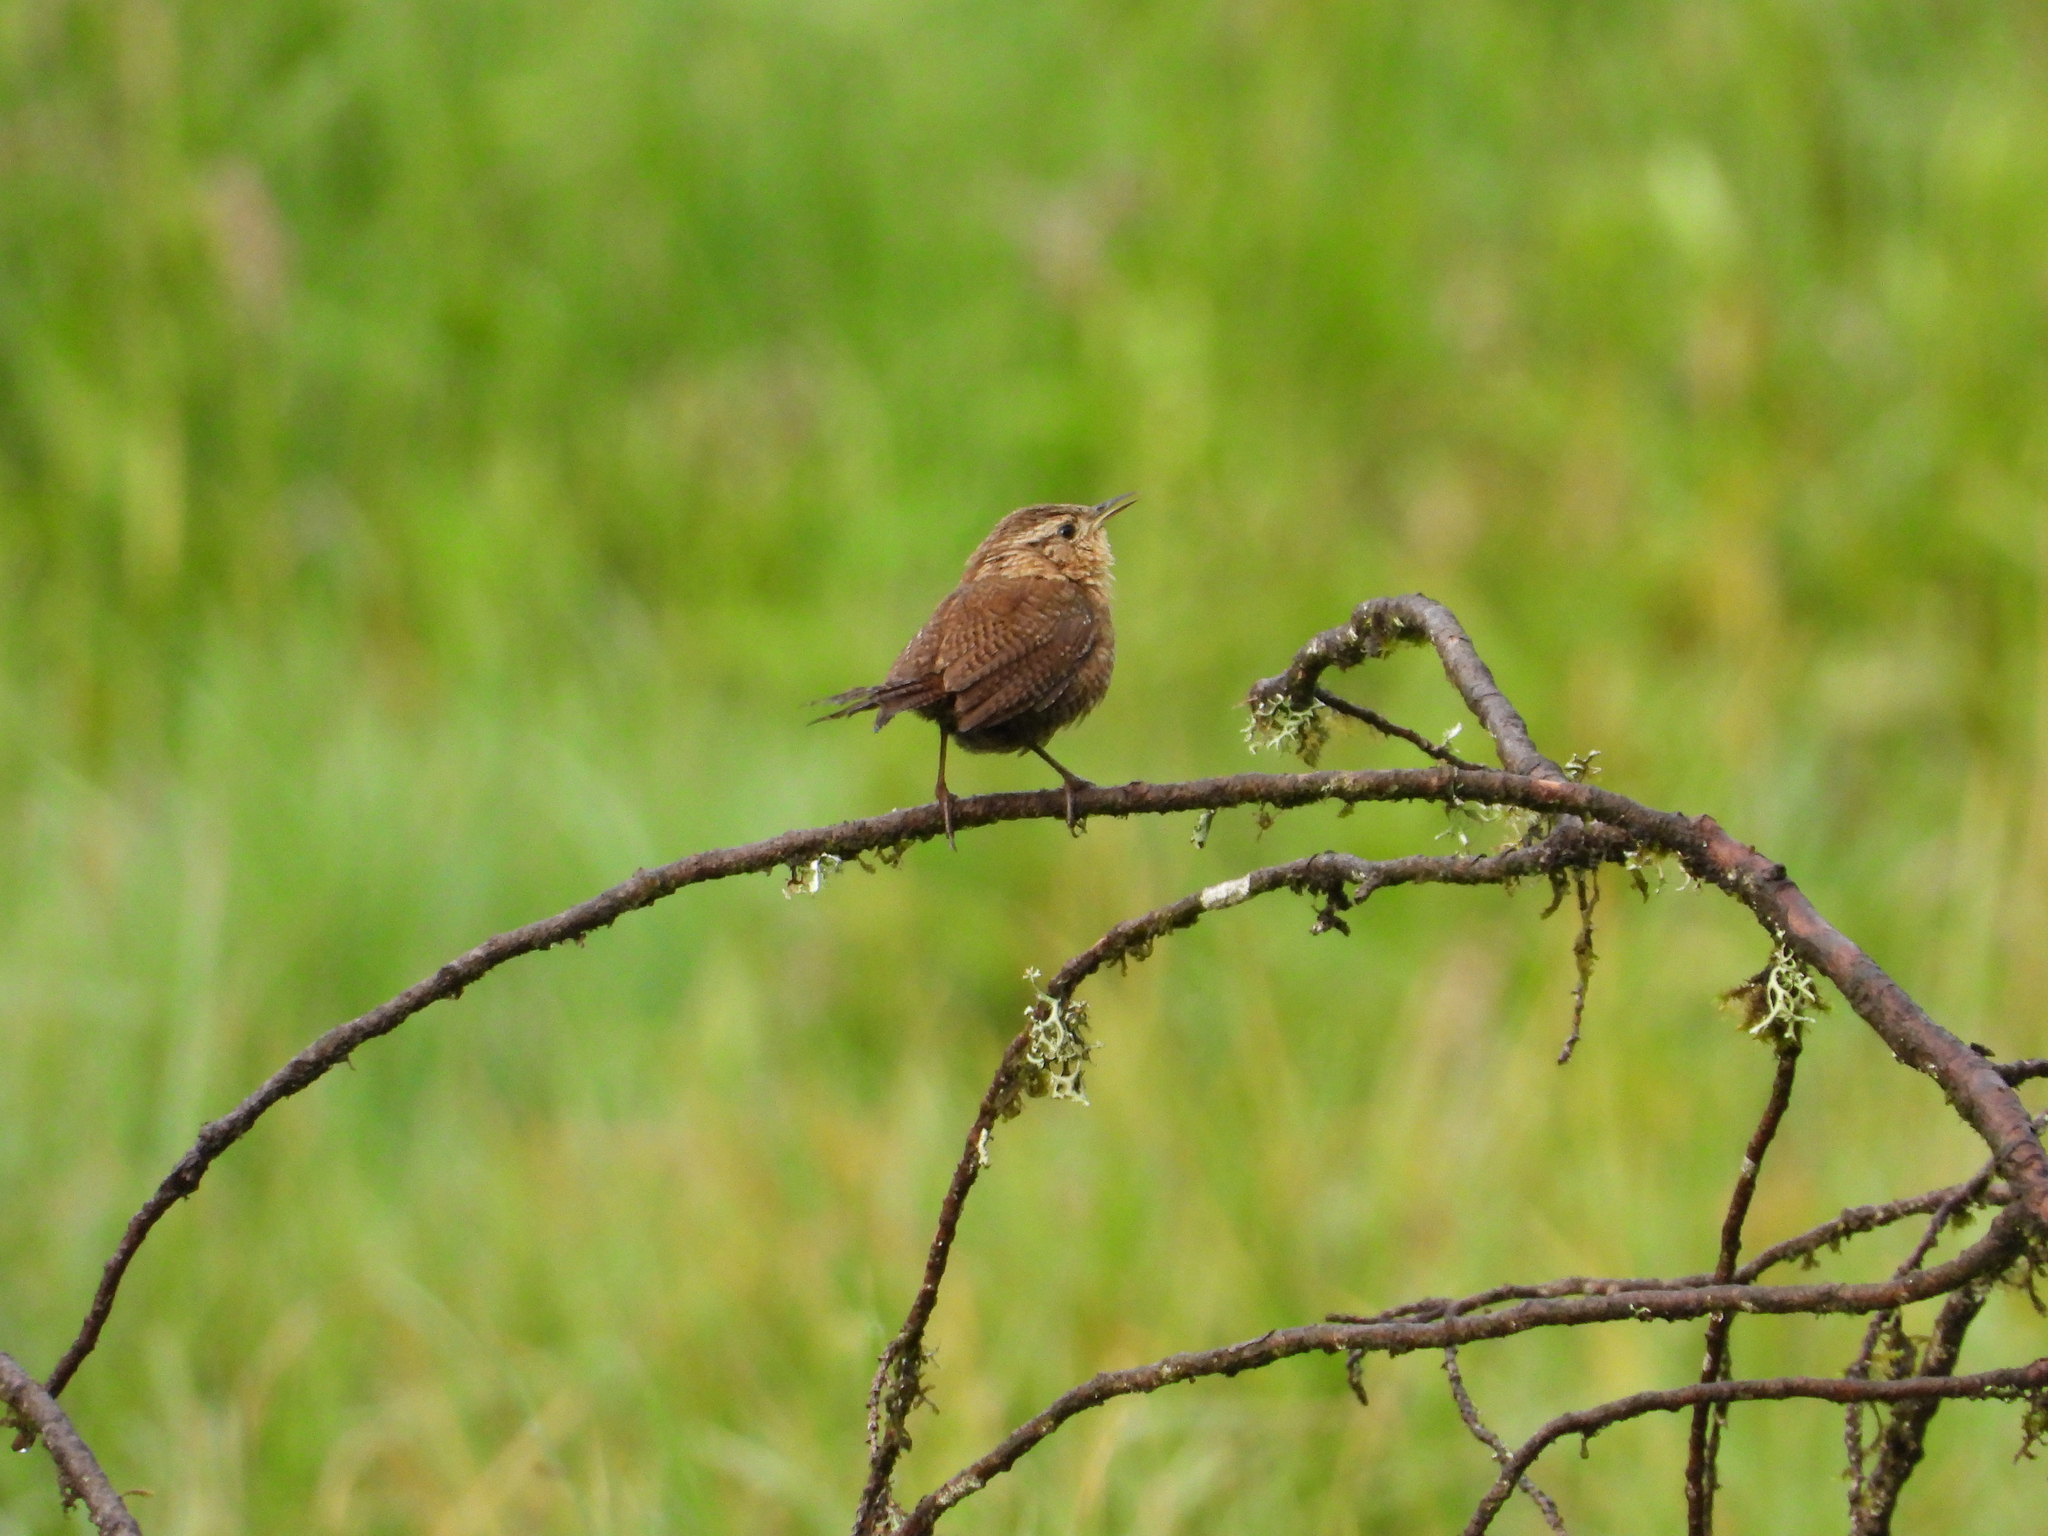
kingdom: Animalia
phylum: Chordata
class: Aves
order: Passeriformes
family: Troglodytidae
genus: Troglodytes
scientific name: Troglodytes aedon
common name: House wren
